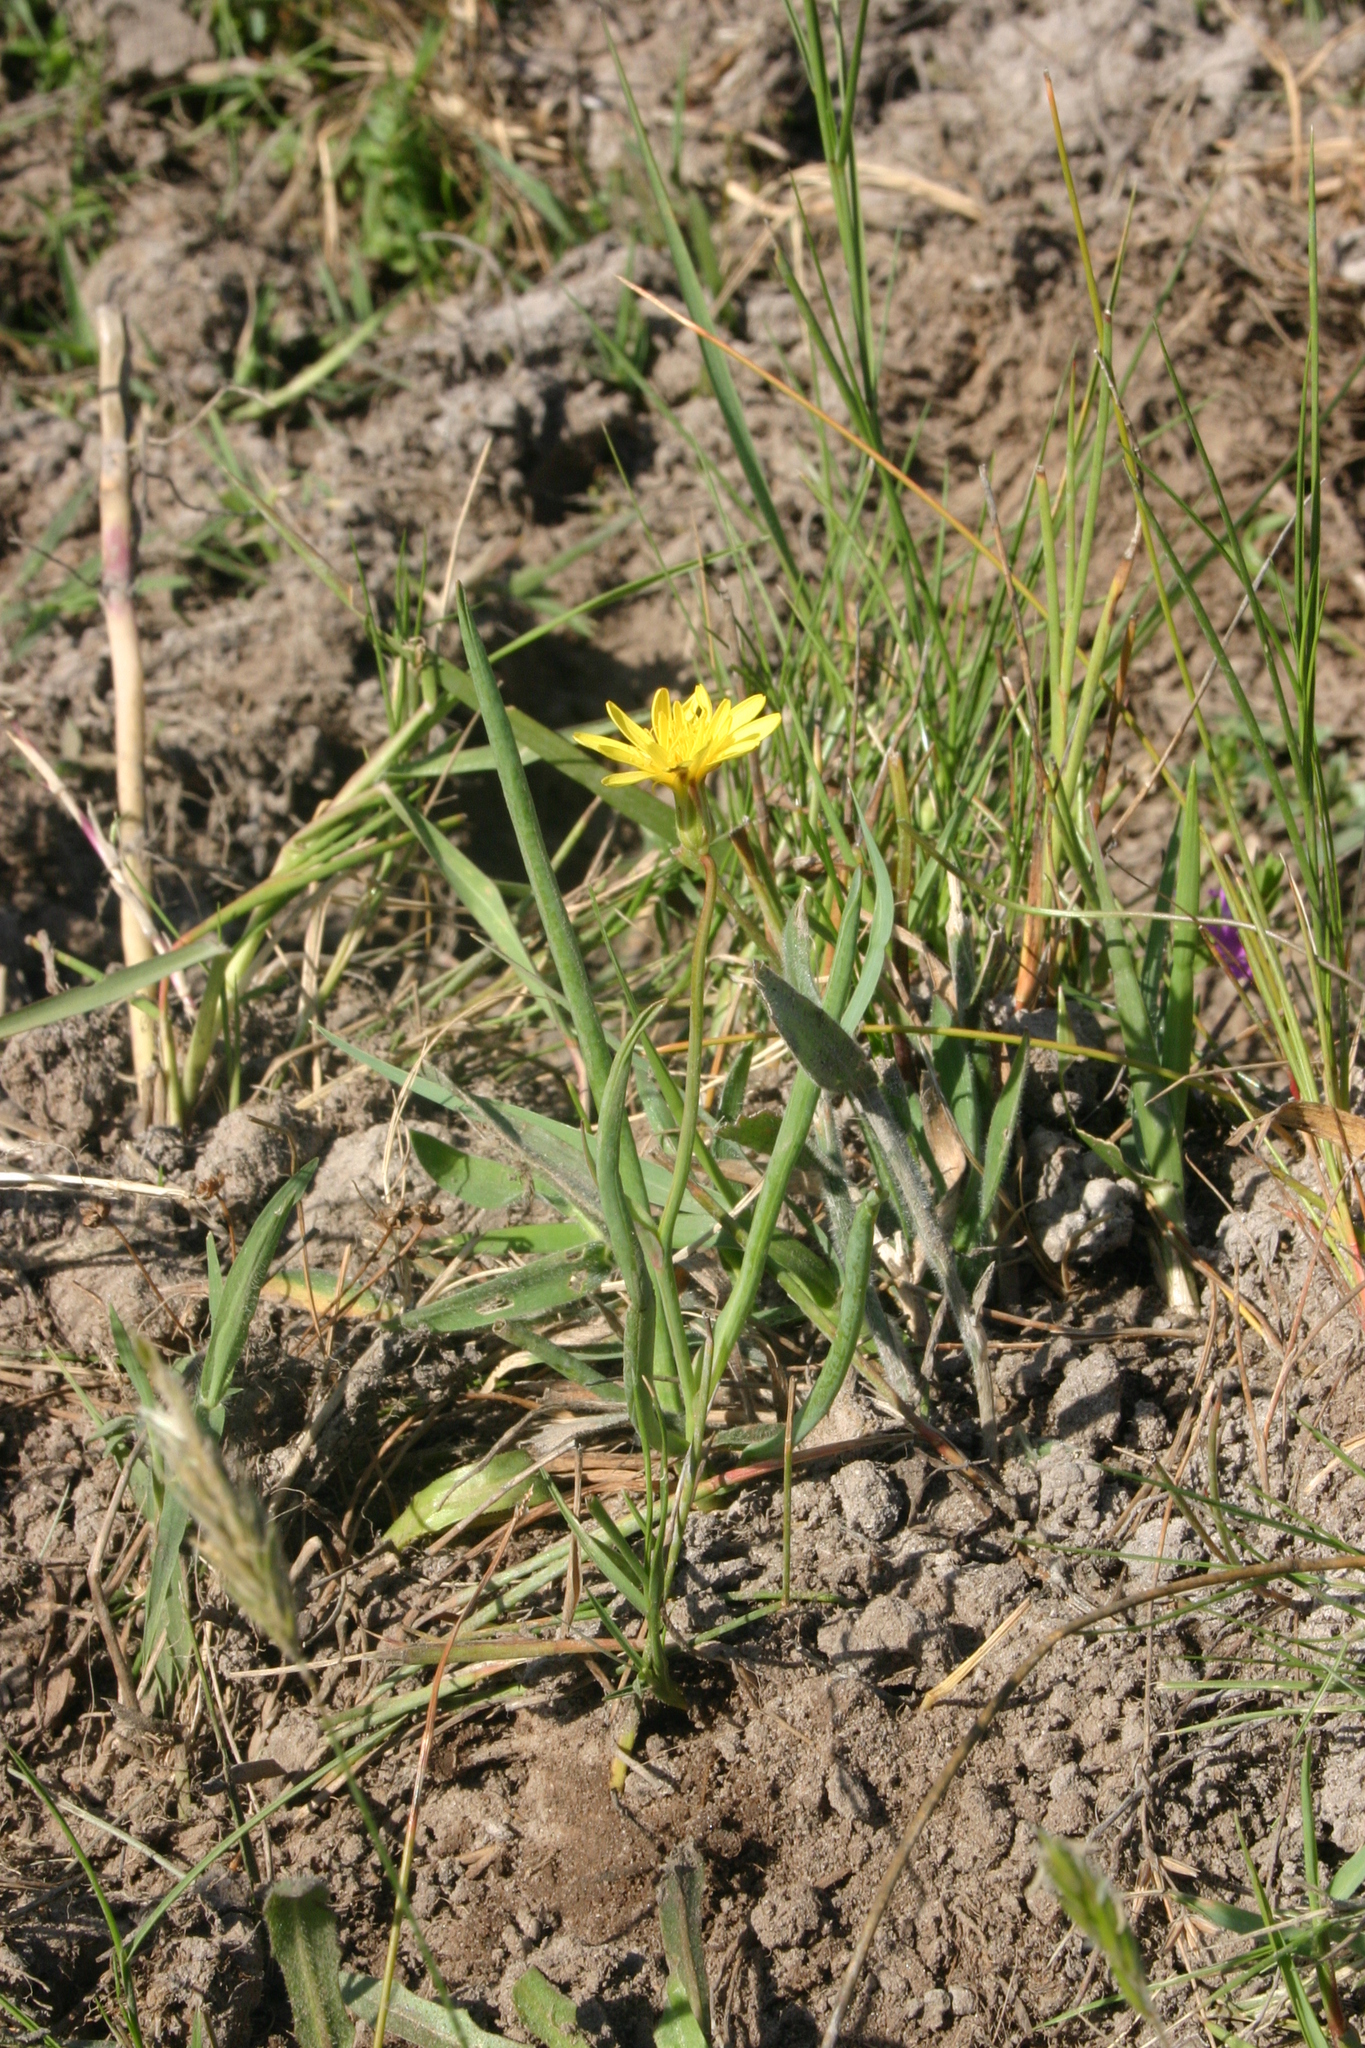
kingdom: Plantae
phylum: Tracheophyta
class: Magnoliopsida
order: Asterales
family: Asteraceae
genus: Avellara
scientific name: Avellara fistulosa
